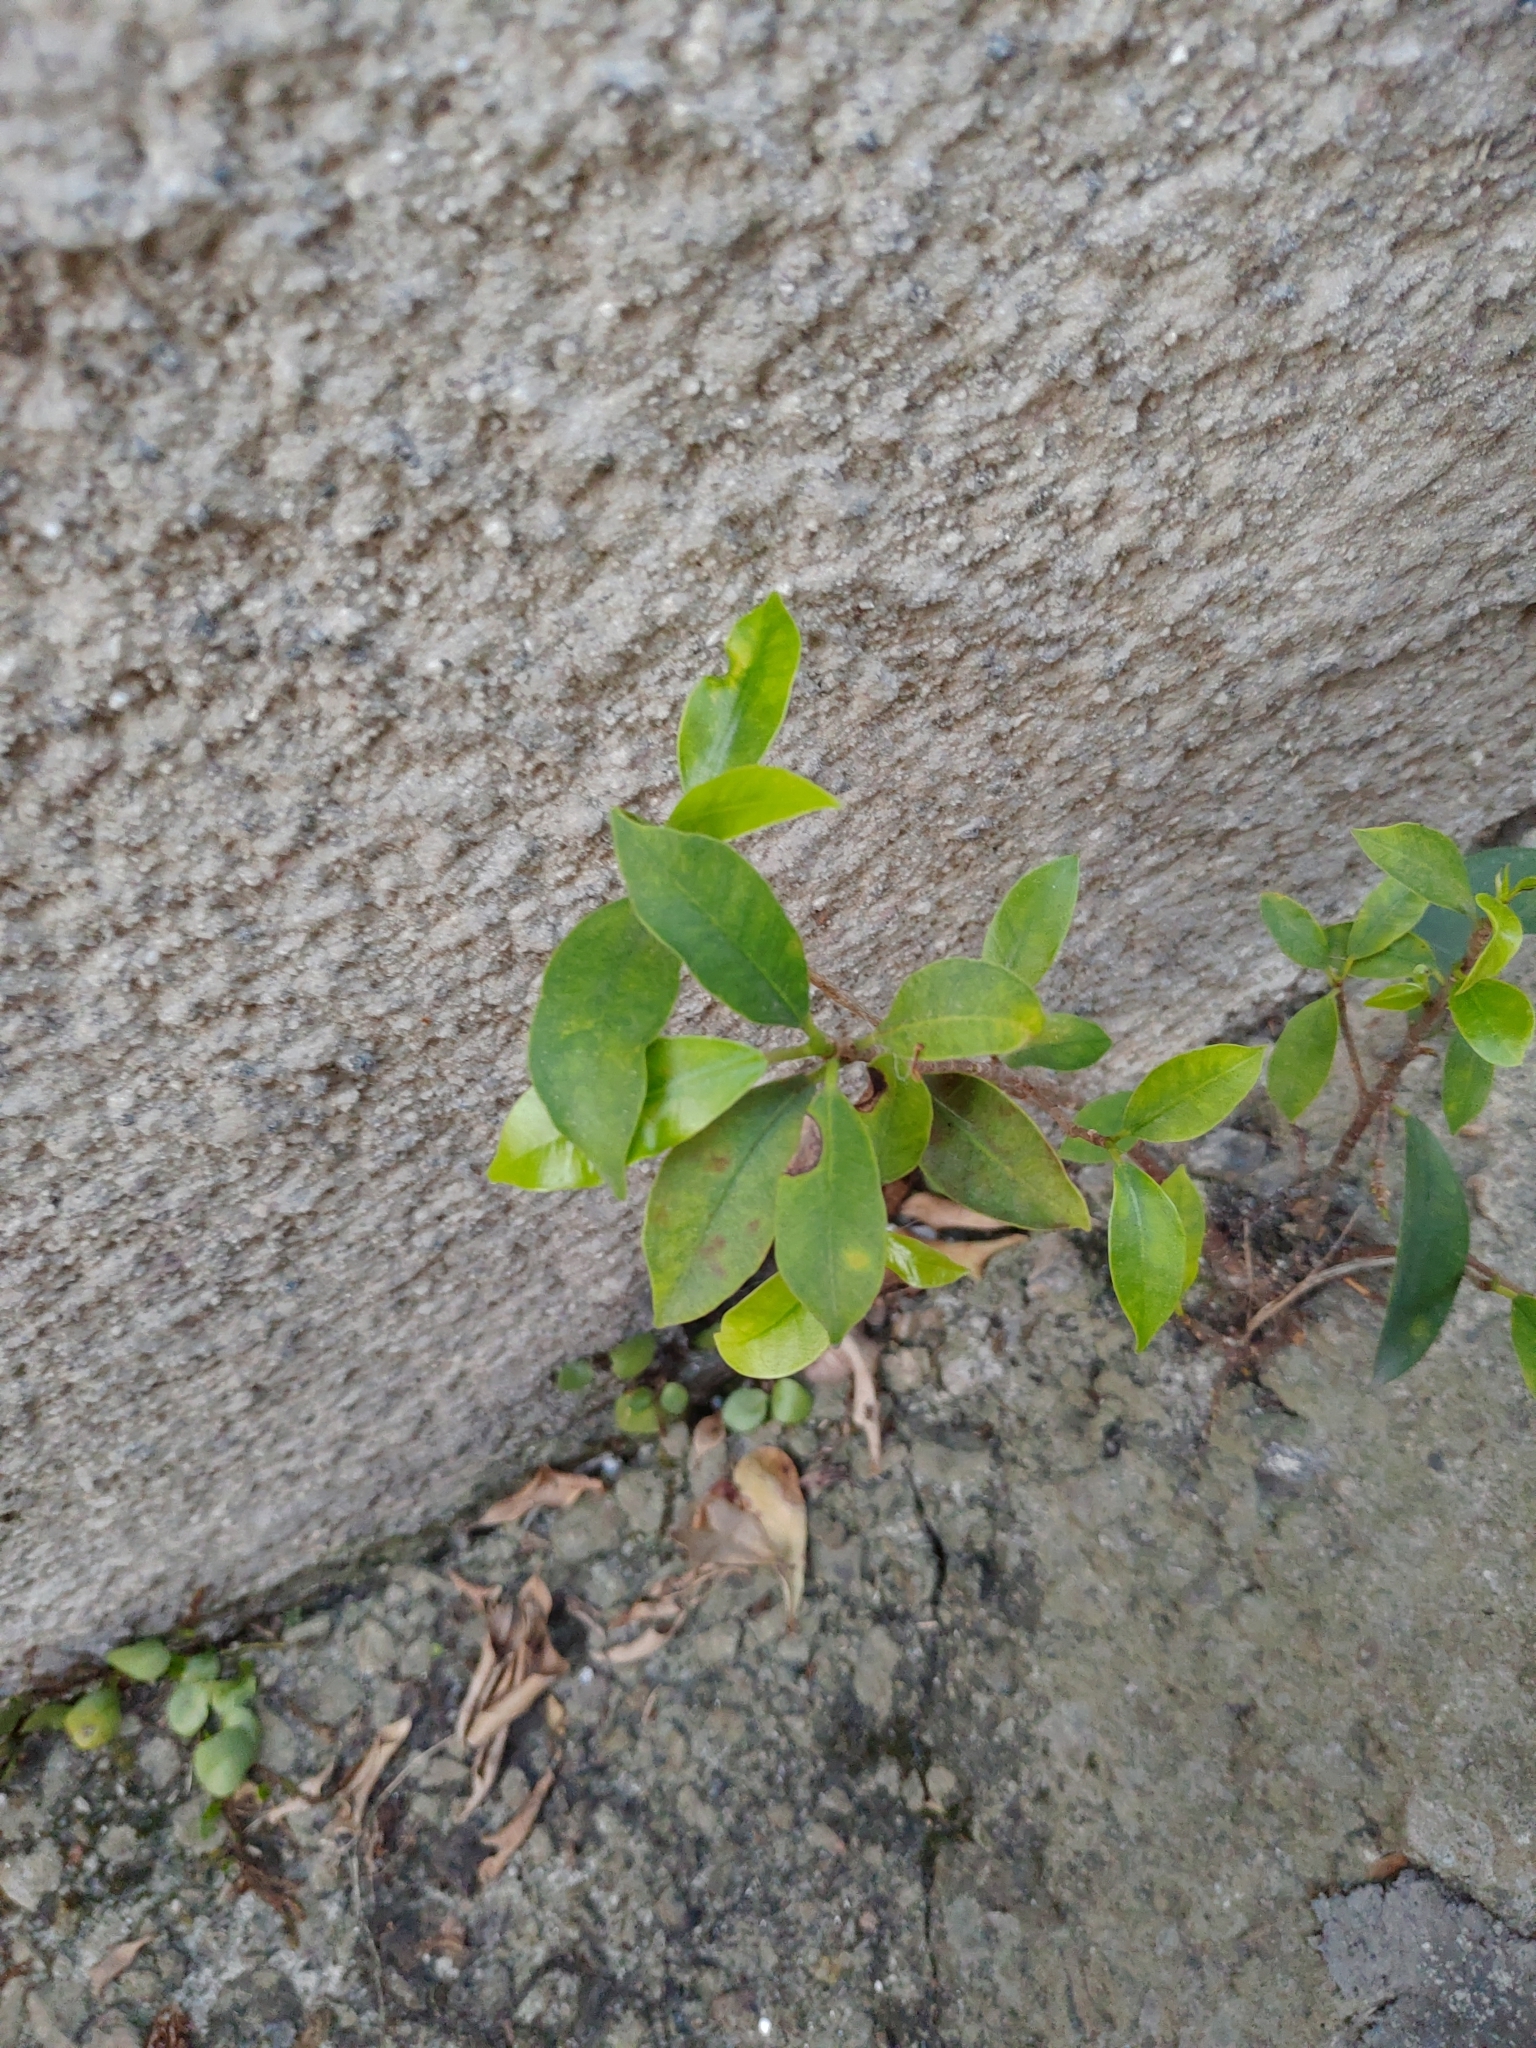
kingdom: Plantae
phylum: Tracheophyta
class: Magnoliopsida
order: Rosales
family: Moraceae
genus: Ficus
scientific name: Ficus microcarpa
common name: Chinese banyan
